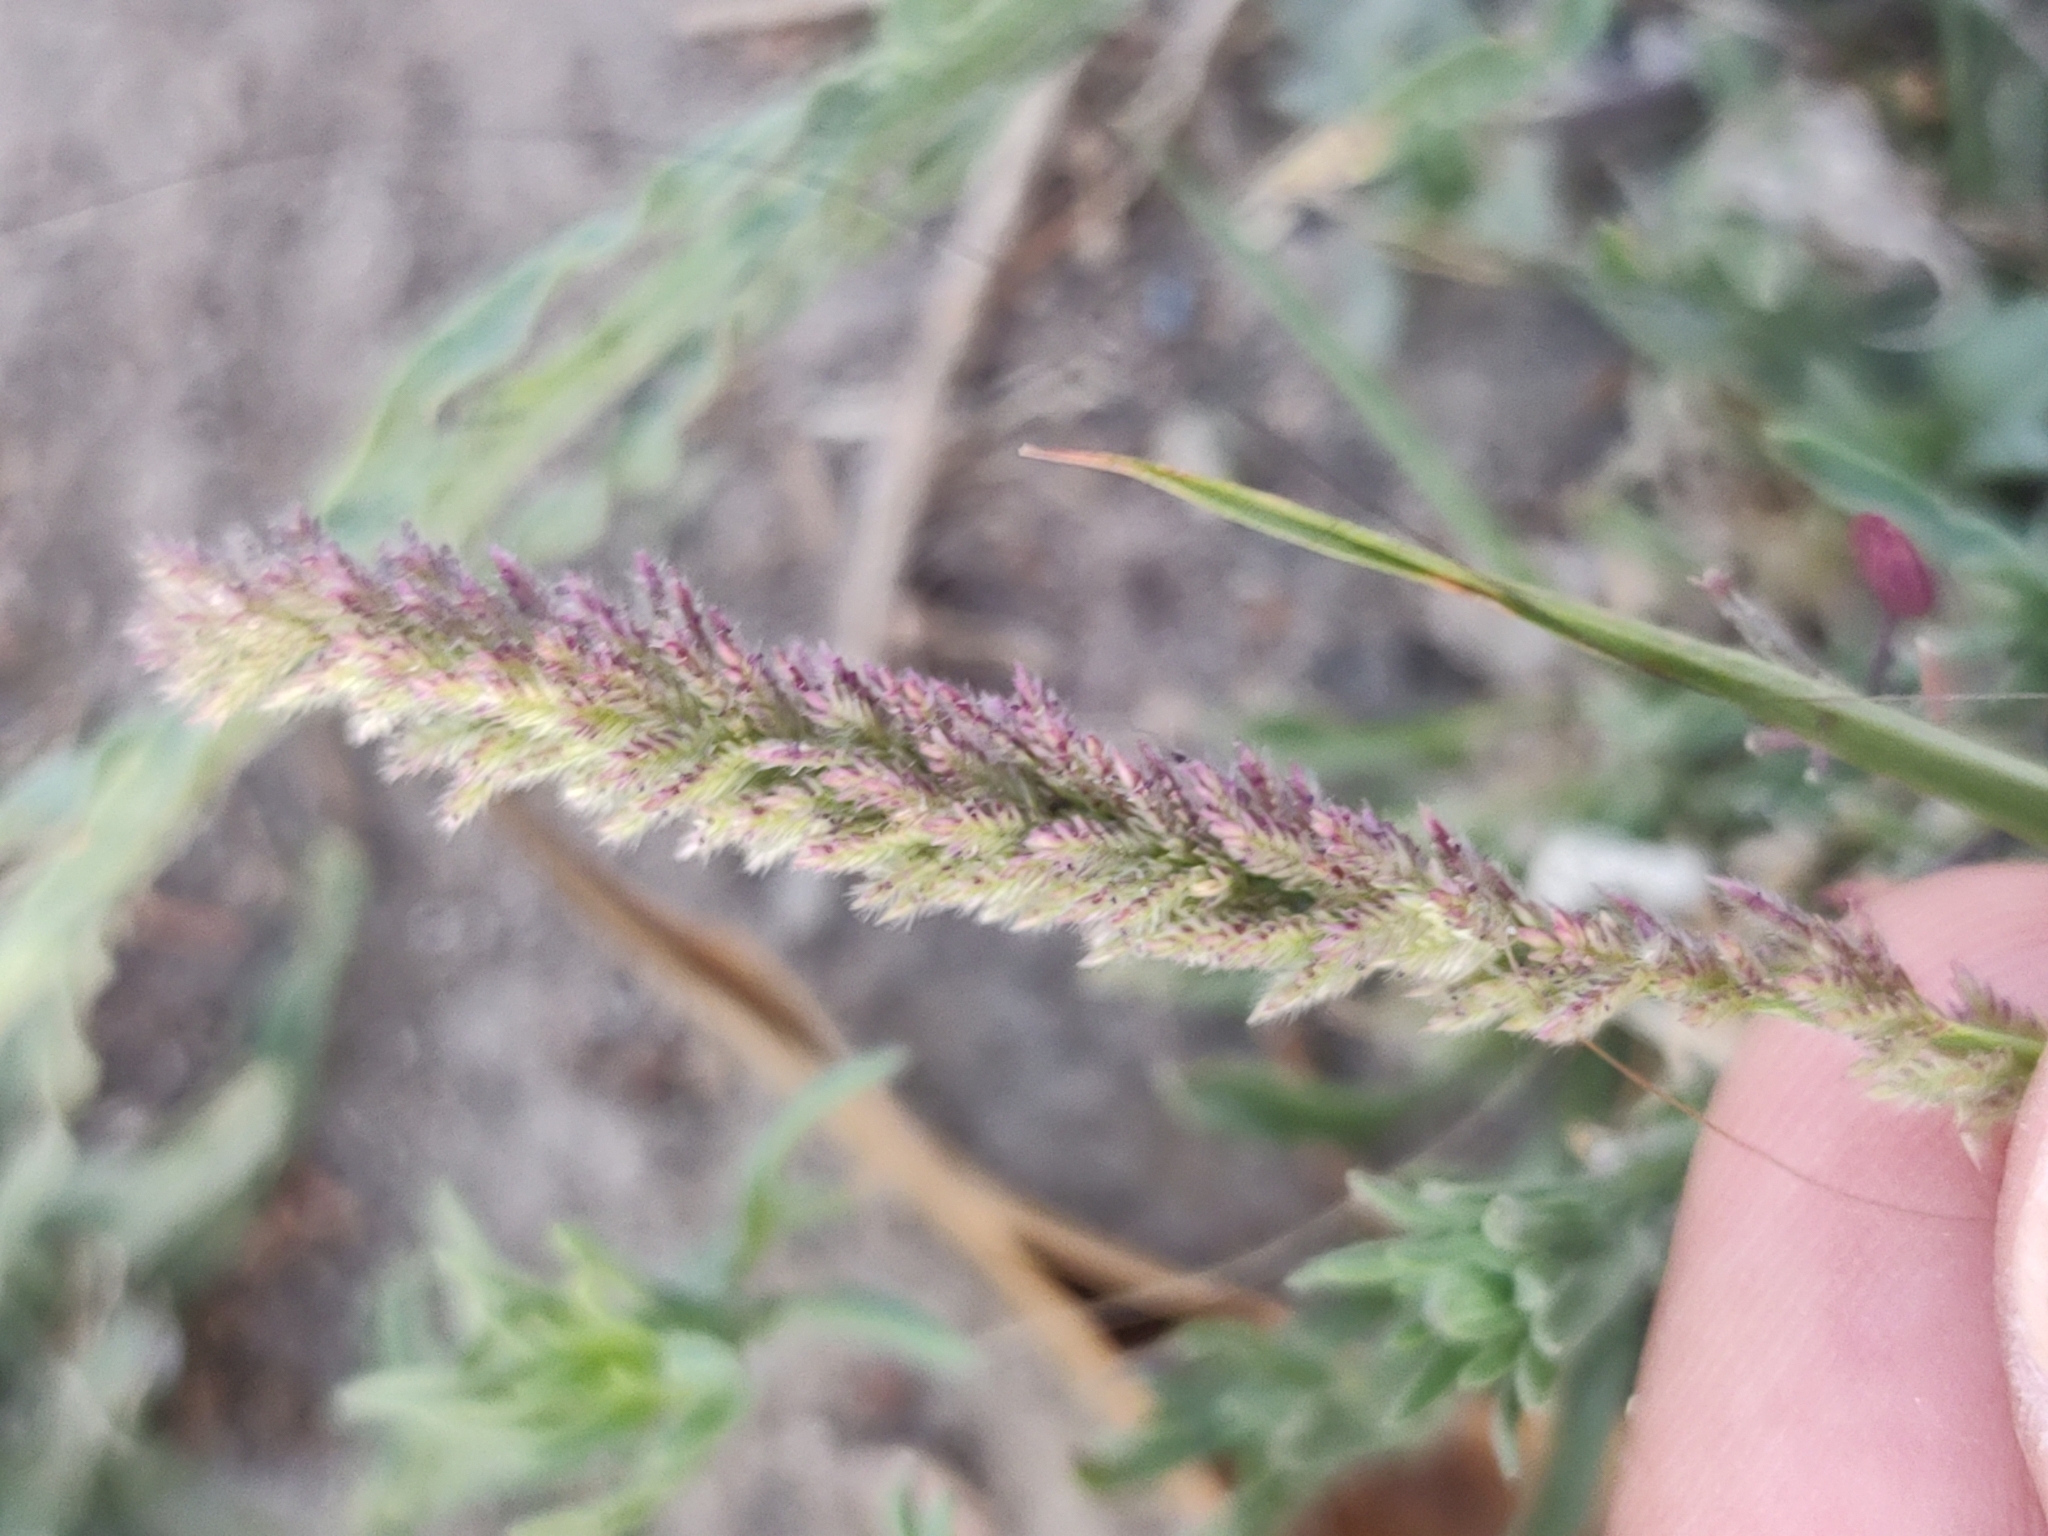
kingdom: Plantae
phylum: Tracheophyta
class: Liliopsida
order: Poales
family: Poaceae
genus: Eragrostis
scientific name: Eragrostis ciliaris
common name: Gophertail lovegrass
